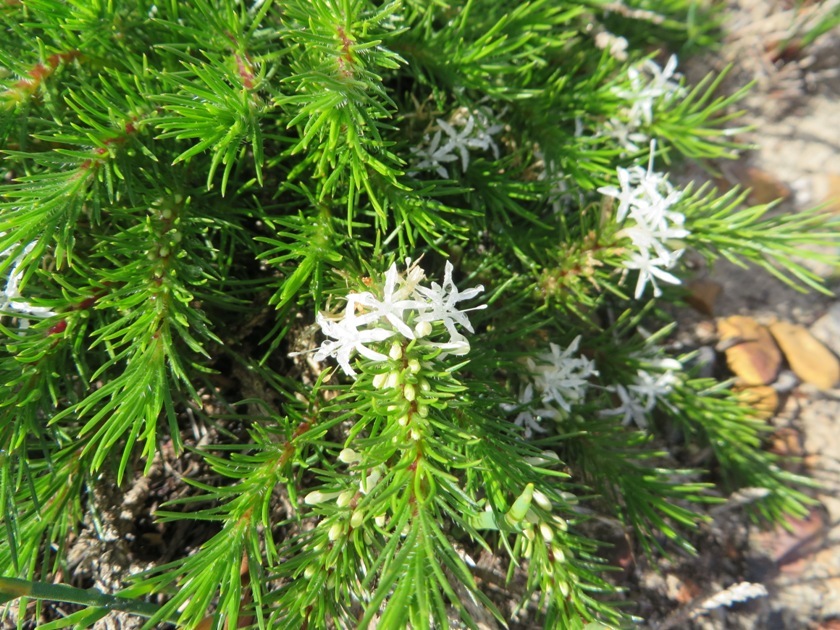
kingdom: Plantae
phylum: Tracheophyta
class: Magnoliopsida
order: Asterales
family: Campanulaceae
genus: Merciera
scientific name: Merciera leptoloba
